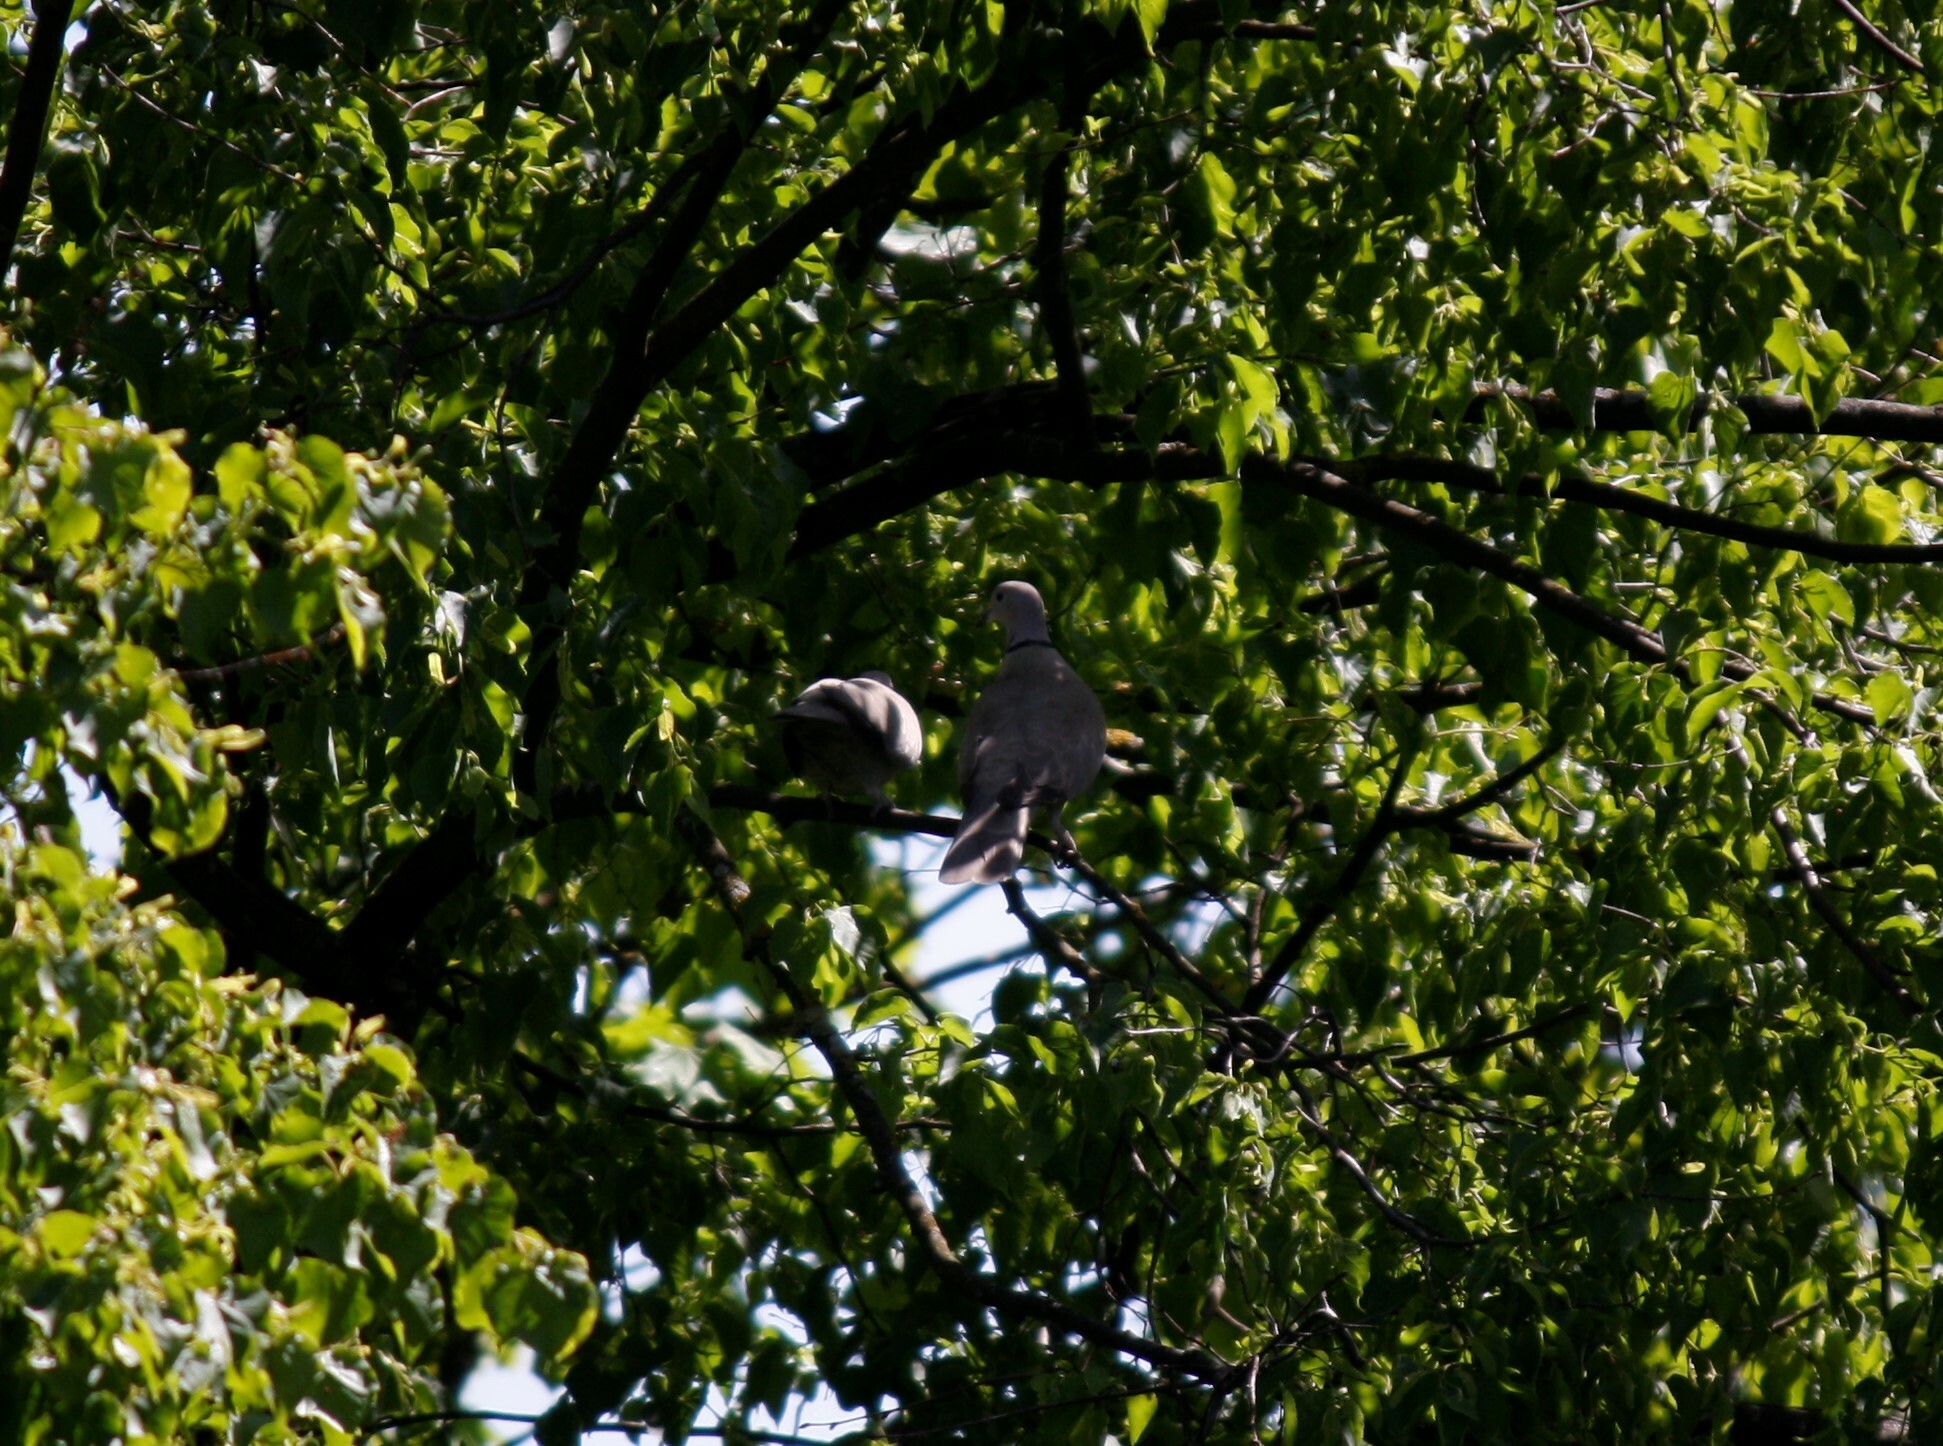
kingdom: Animalia
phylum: Chordata
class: Aves
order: Columbiformes
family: Columbidae
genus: Streptopelia
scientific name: Streptopelia decaocto
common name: Eurasian collared dove
